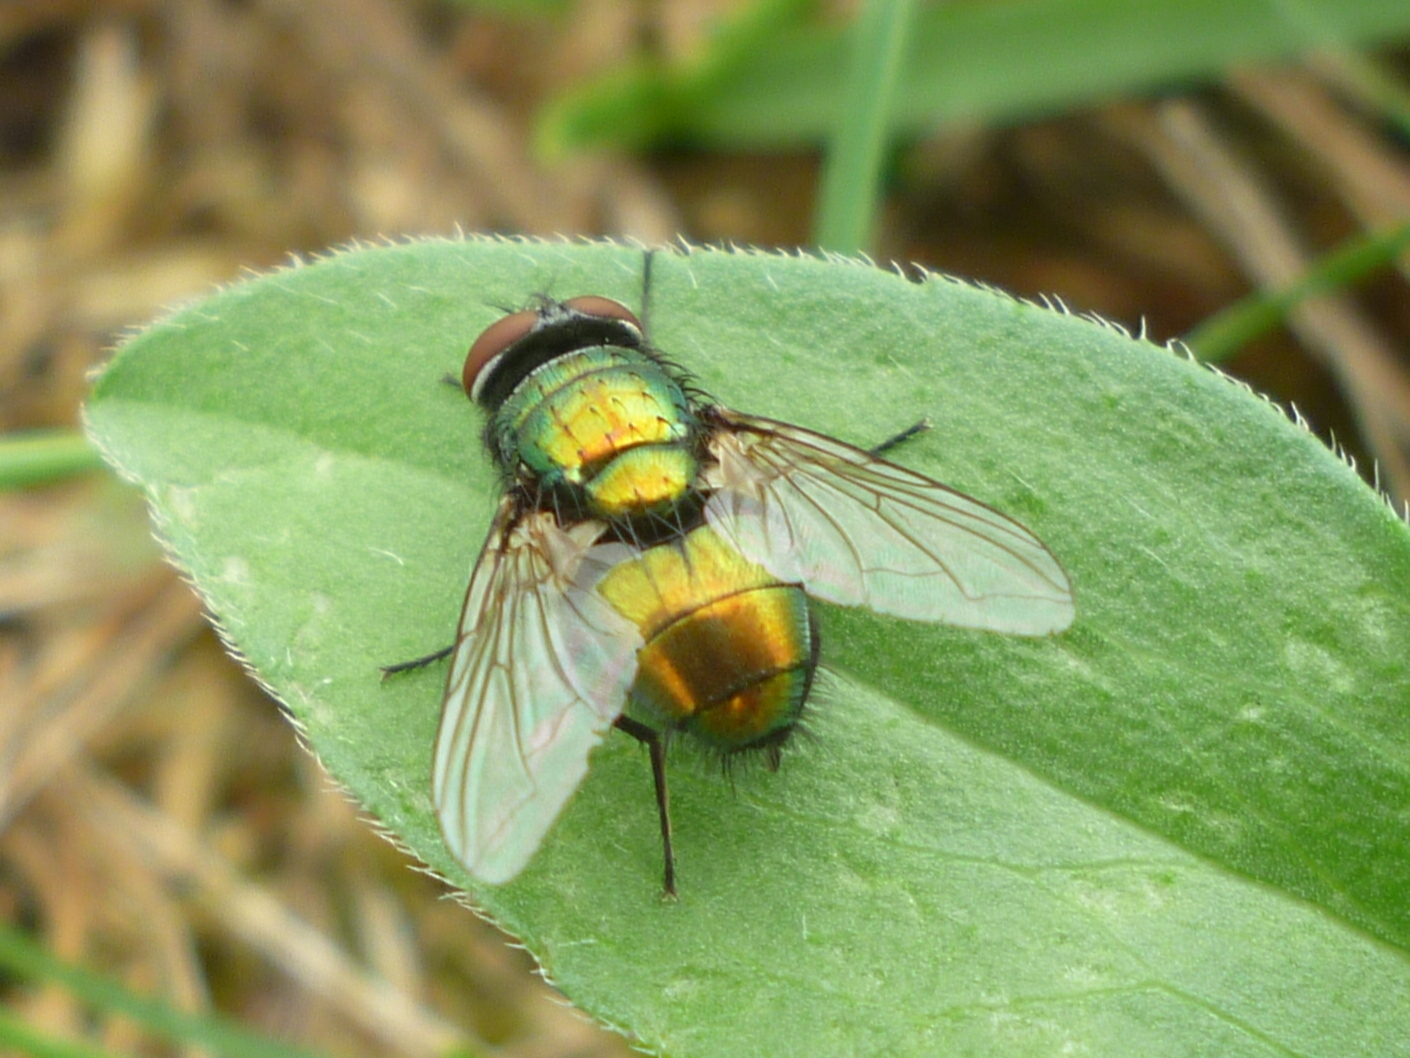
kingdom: Animalia
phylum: Arthropoda
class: Insecta
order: Diptera
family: Calliphoridae
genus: Lucilia
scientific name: Lucilia sericata
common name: Blow fly
